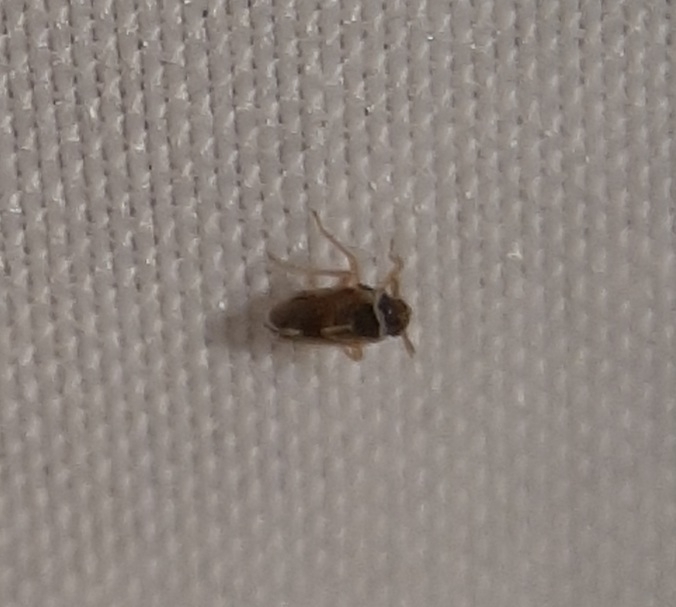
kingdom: Animalia
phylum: Arthropoda
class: Insecta
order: Hemiptera
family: Delphacidae
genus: Chionomus
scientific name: Chionomus
